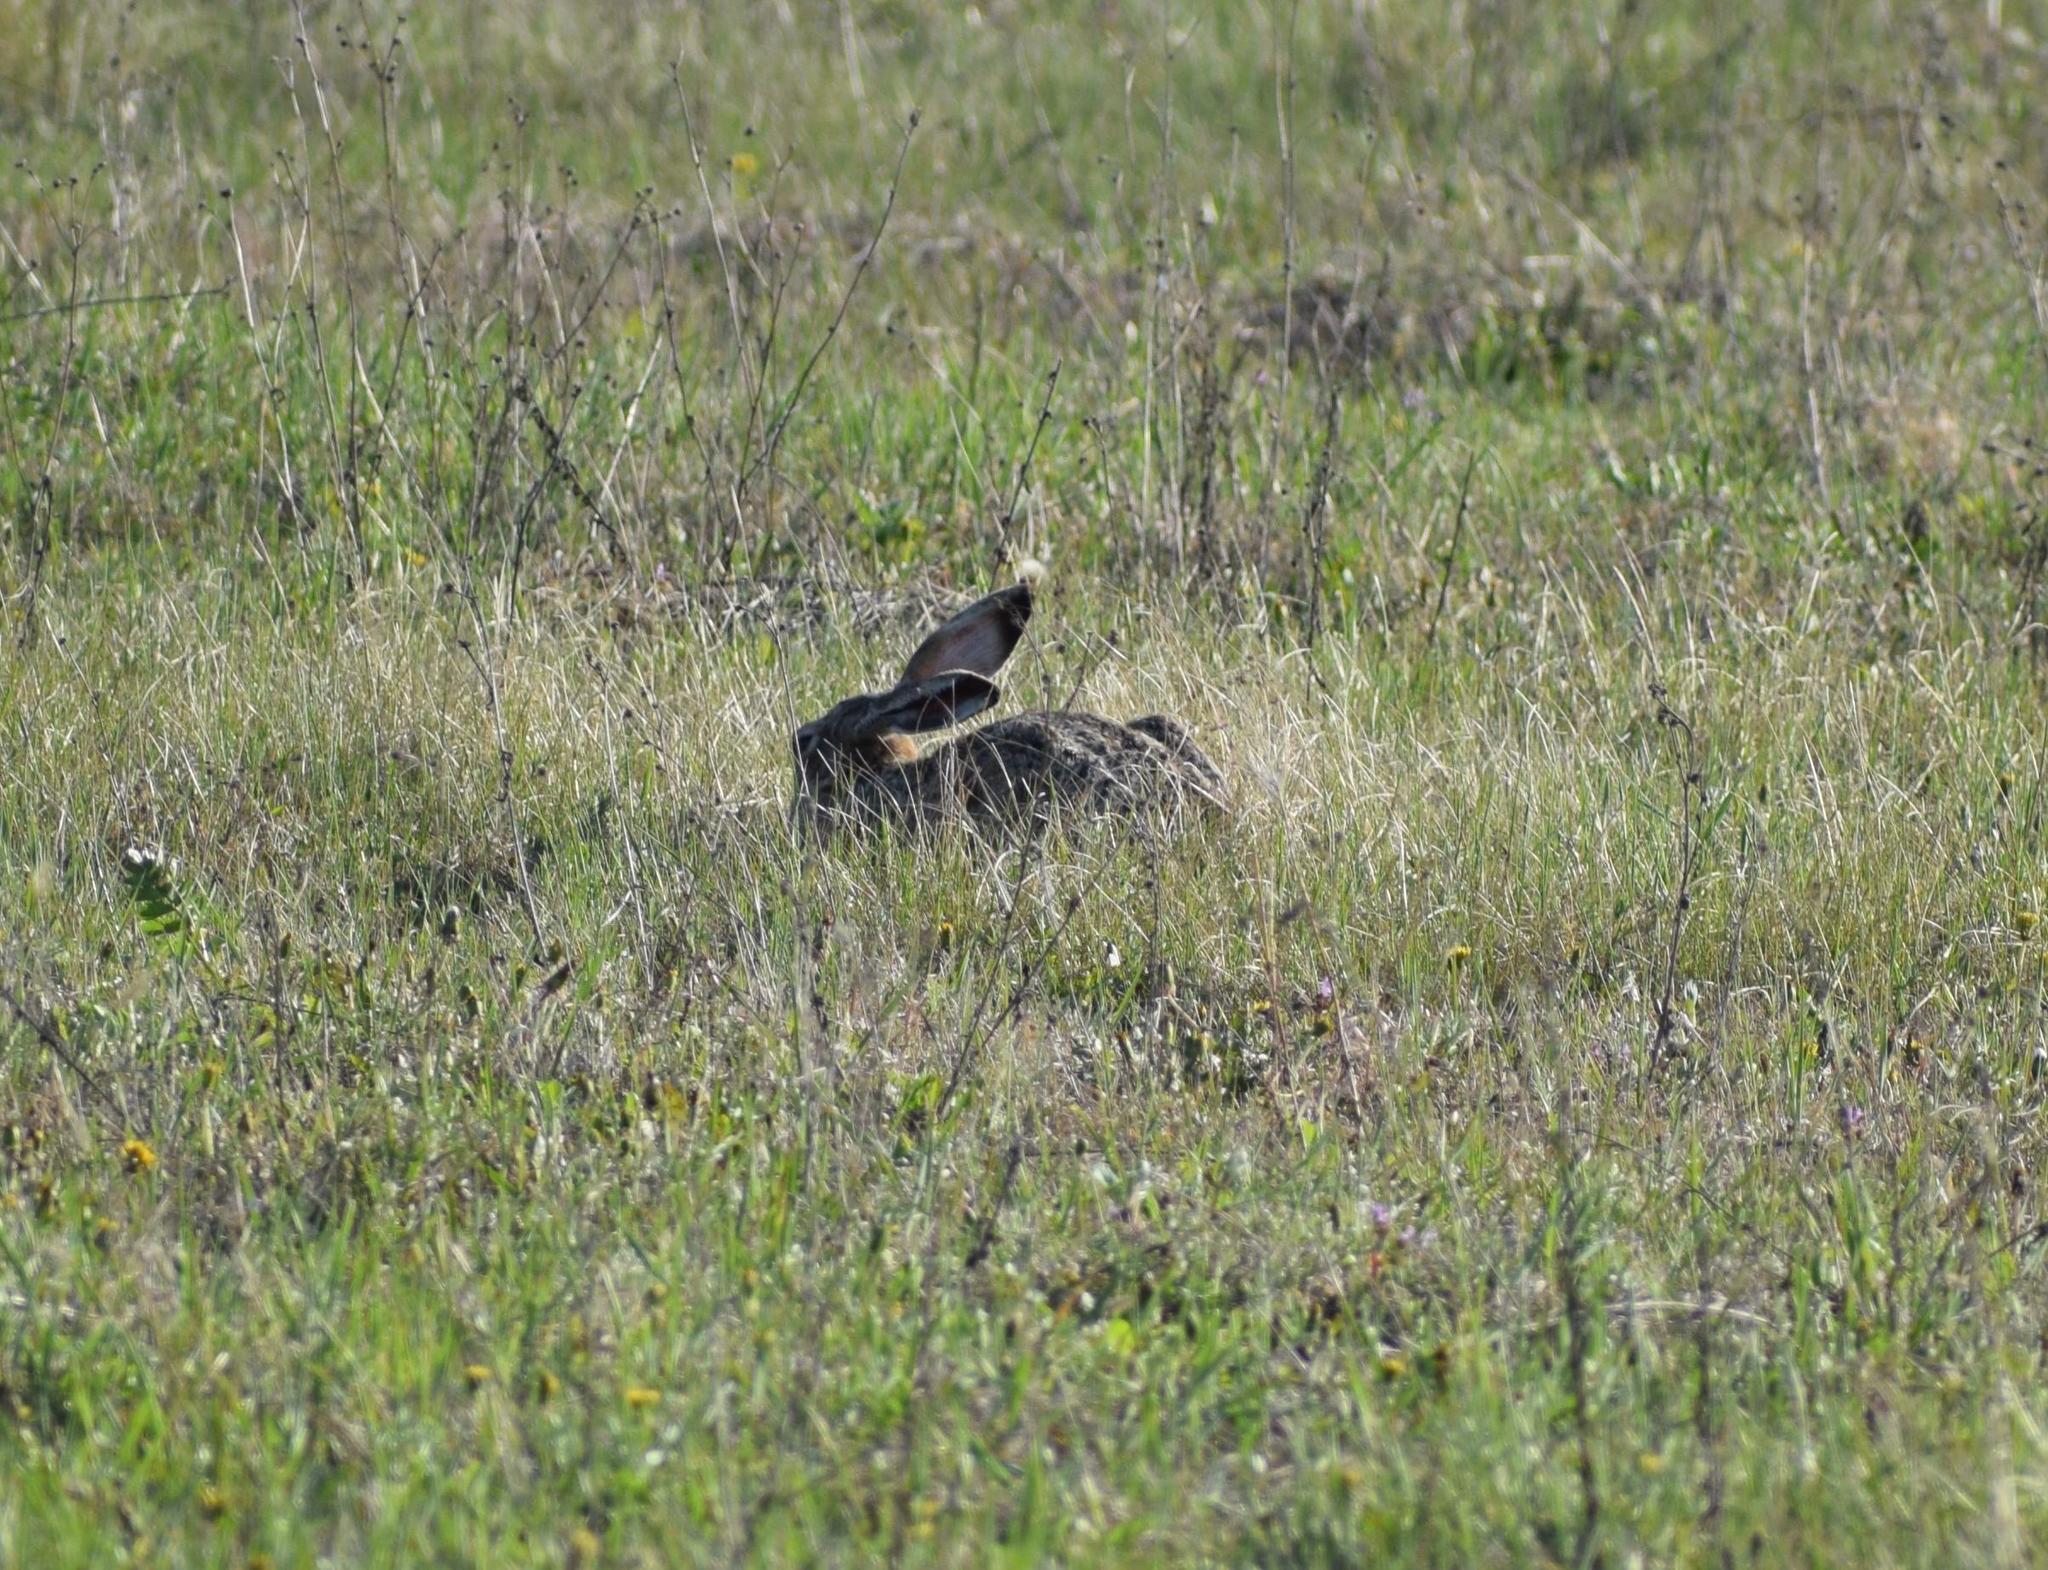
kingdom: Animalia
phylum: Chordata
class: Mammalia
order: Lagomorpha
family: Leporidae
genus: Lepus
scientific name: Lepus europaeus
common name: European hare
